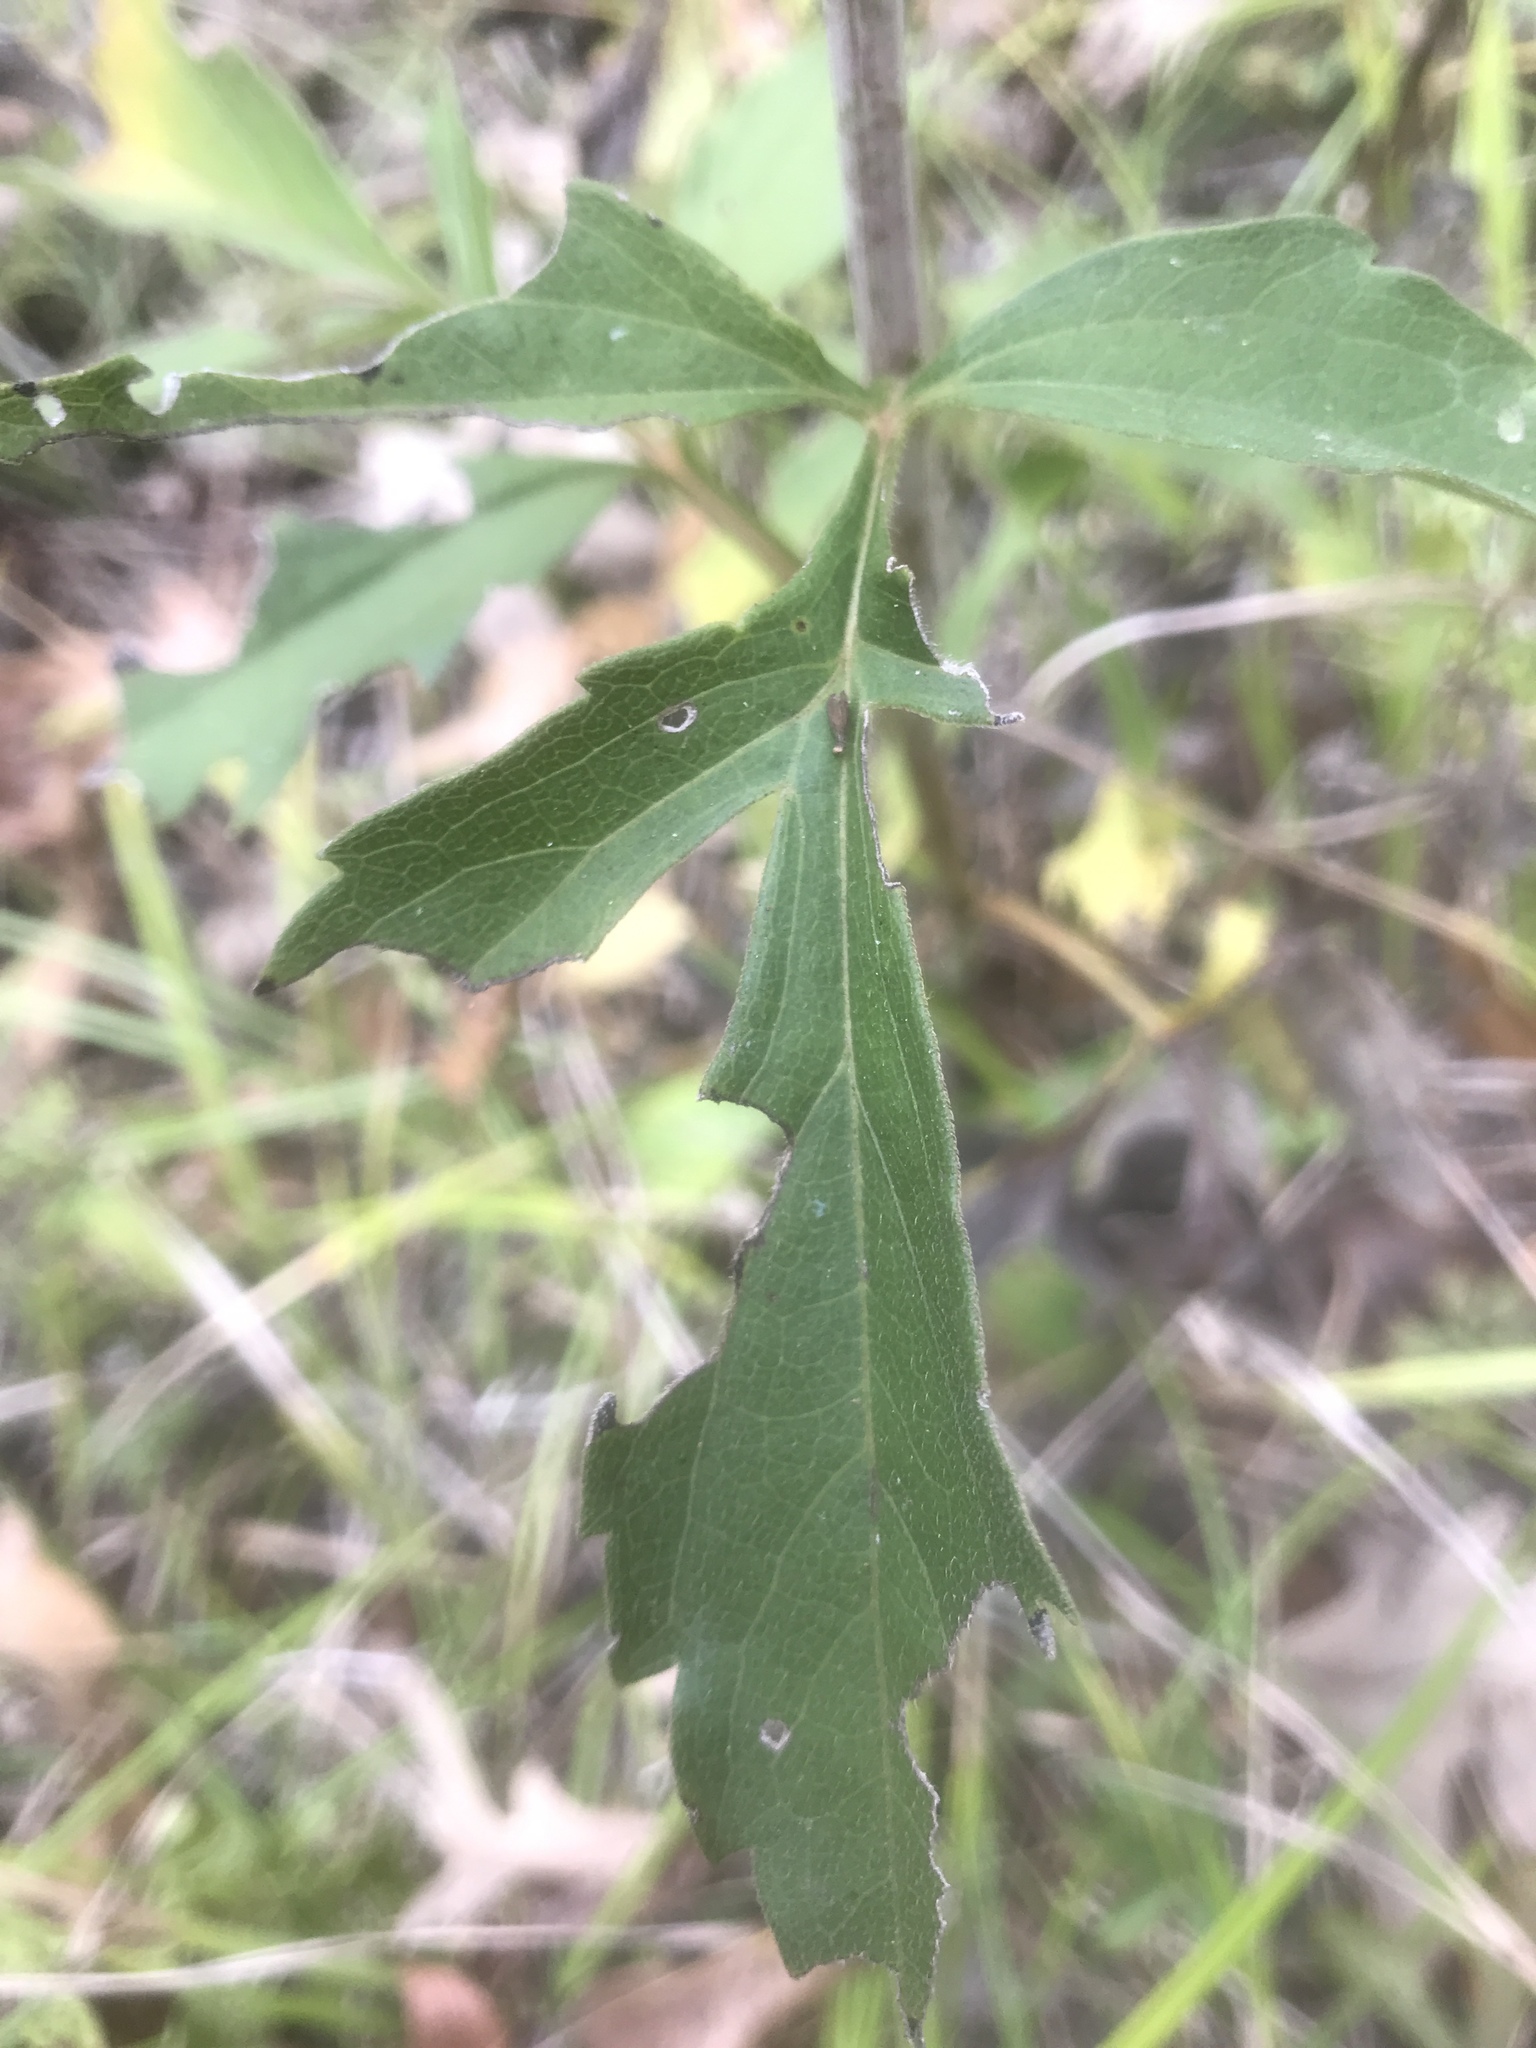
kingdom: Plantae
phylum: Tracheophyta
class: Magnoliopsida
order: Asterales
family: Asteraceae
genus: Rudbeckia
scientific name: Rudbeckia laciniata
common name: Coneflower
